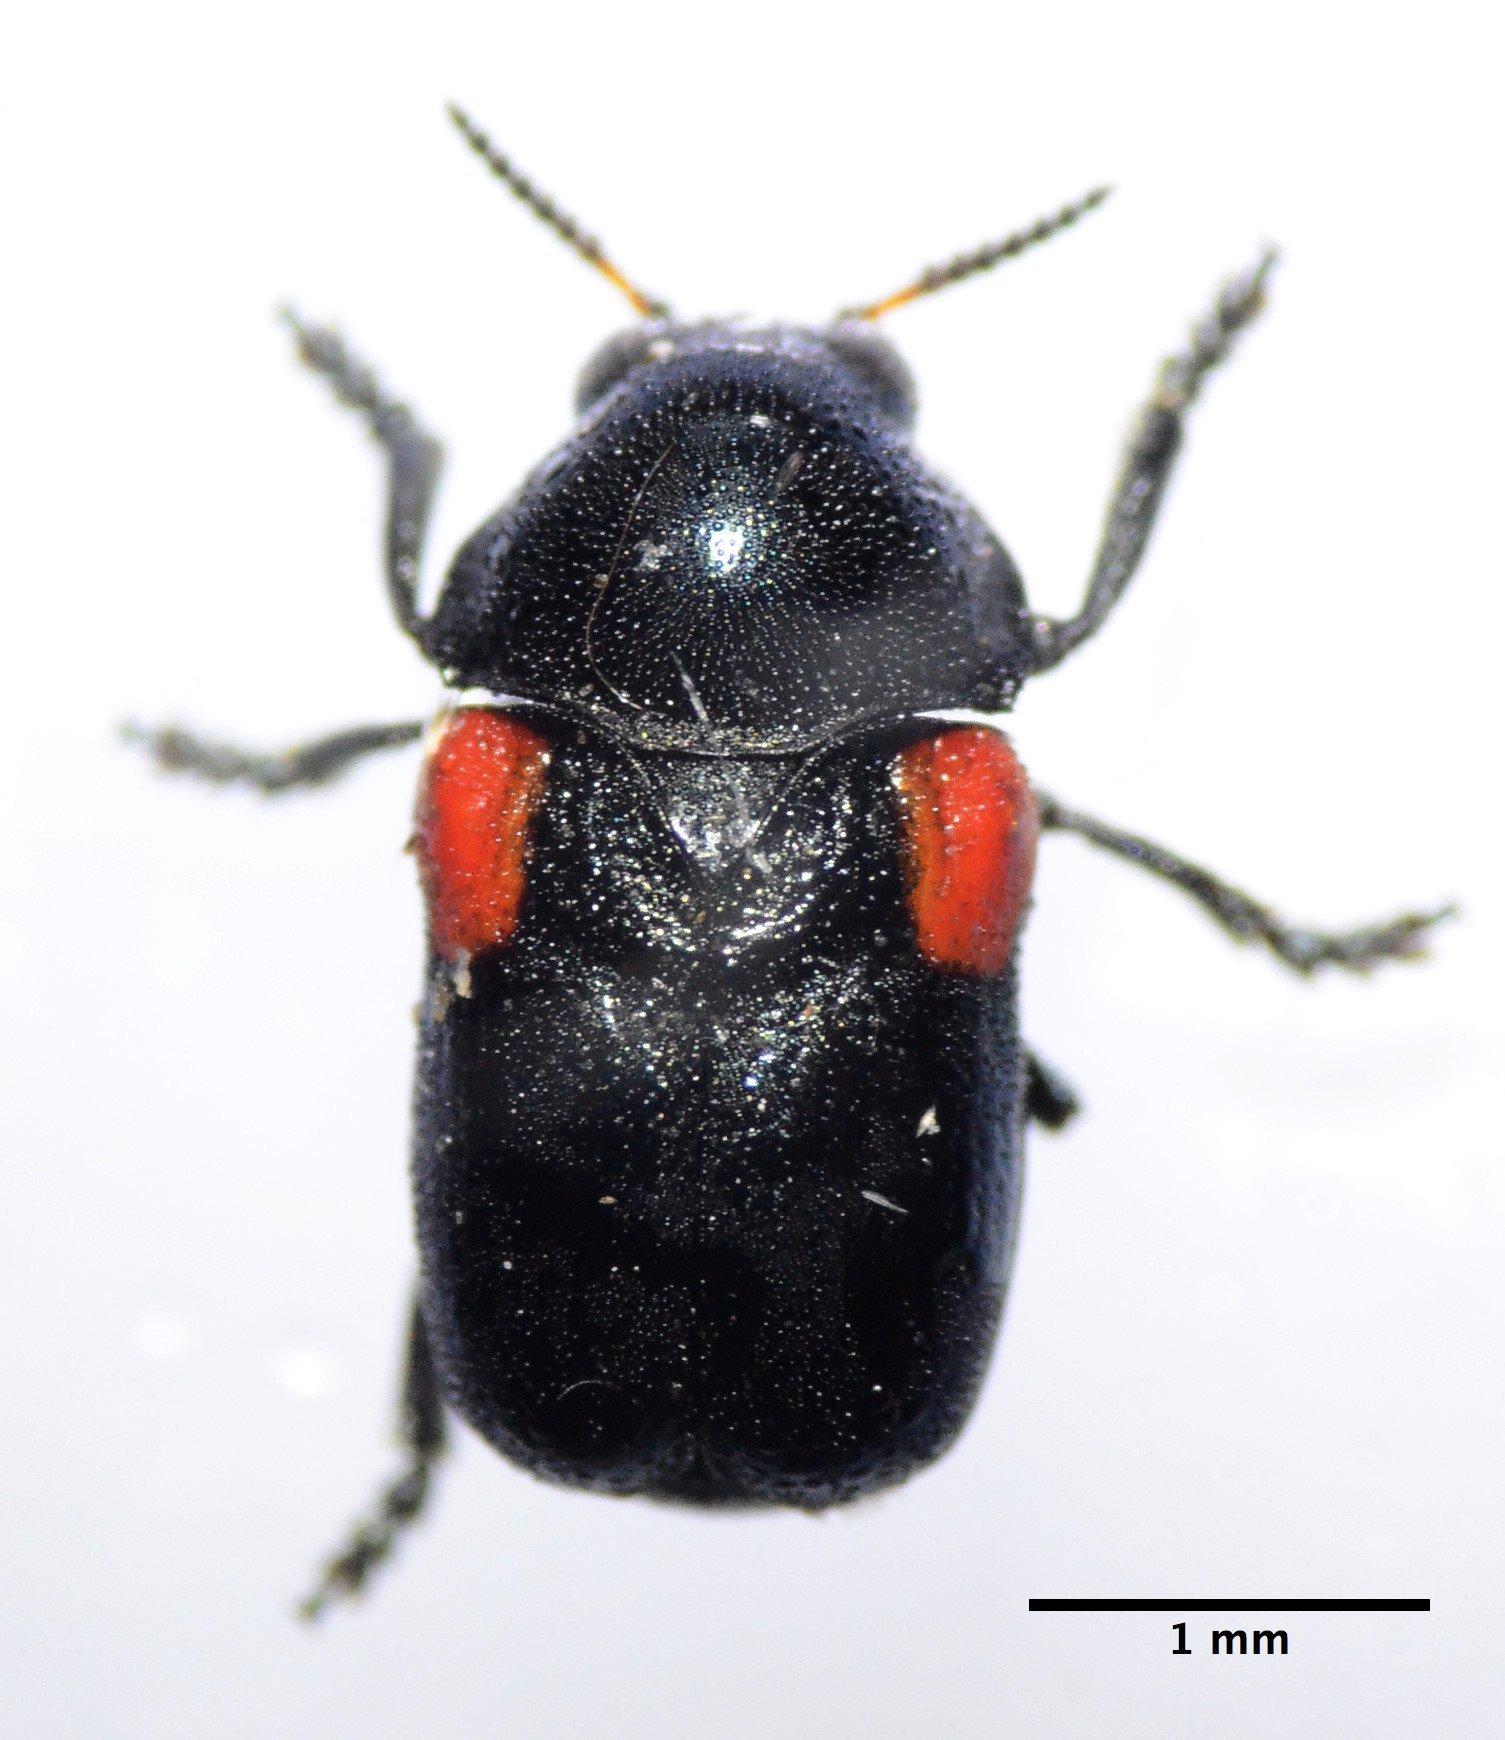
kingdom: Animalia
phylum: Arthropoda
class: Insecta
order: Coleoptera
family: Chrysomelidae
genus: Saxinis
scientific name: Saxinis saucia
